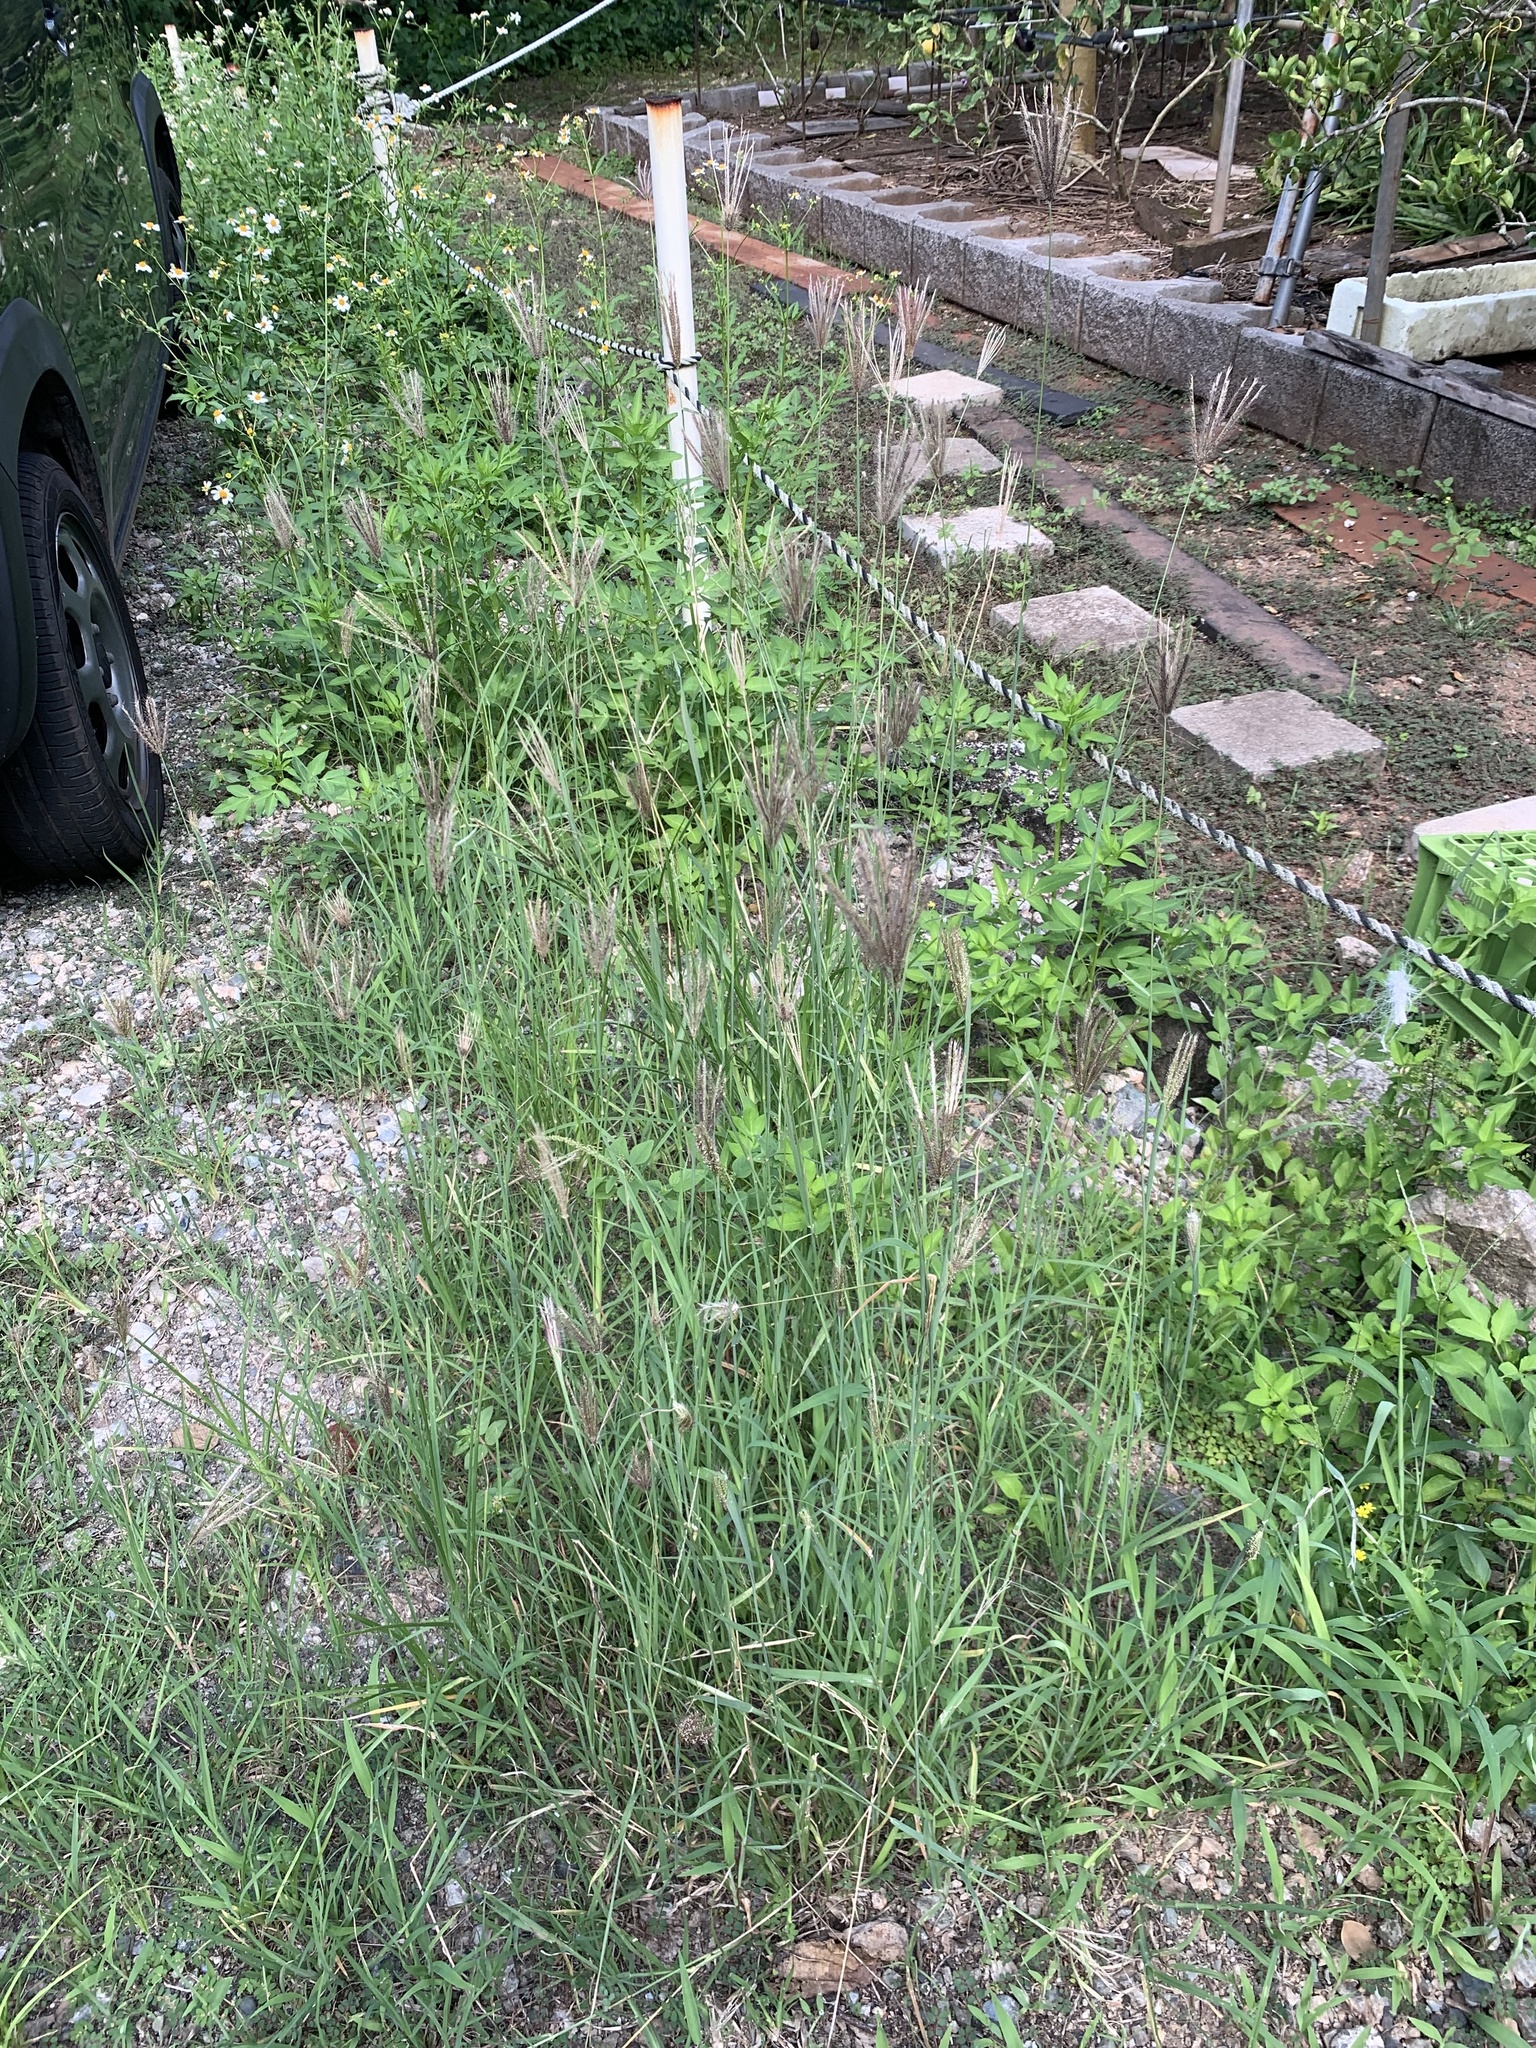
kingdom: Plantae
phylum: Tracheophyta
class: Liliopsida
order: Poales
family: Poaceae
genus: Chloris
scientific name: Chloris barbata
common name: Swollen fingergrass
